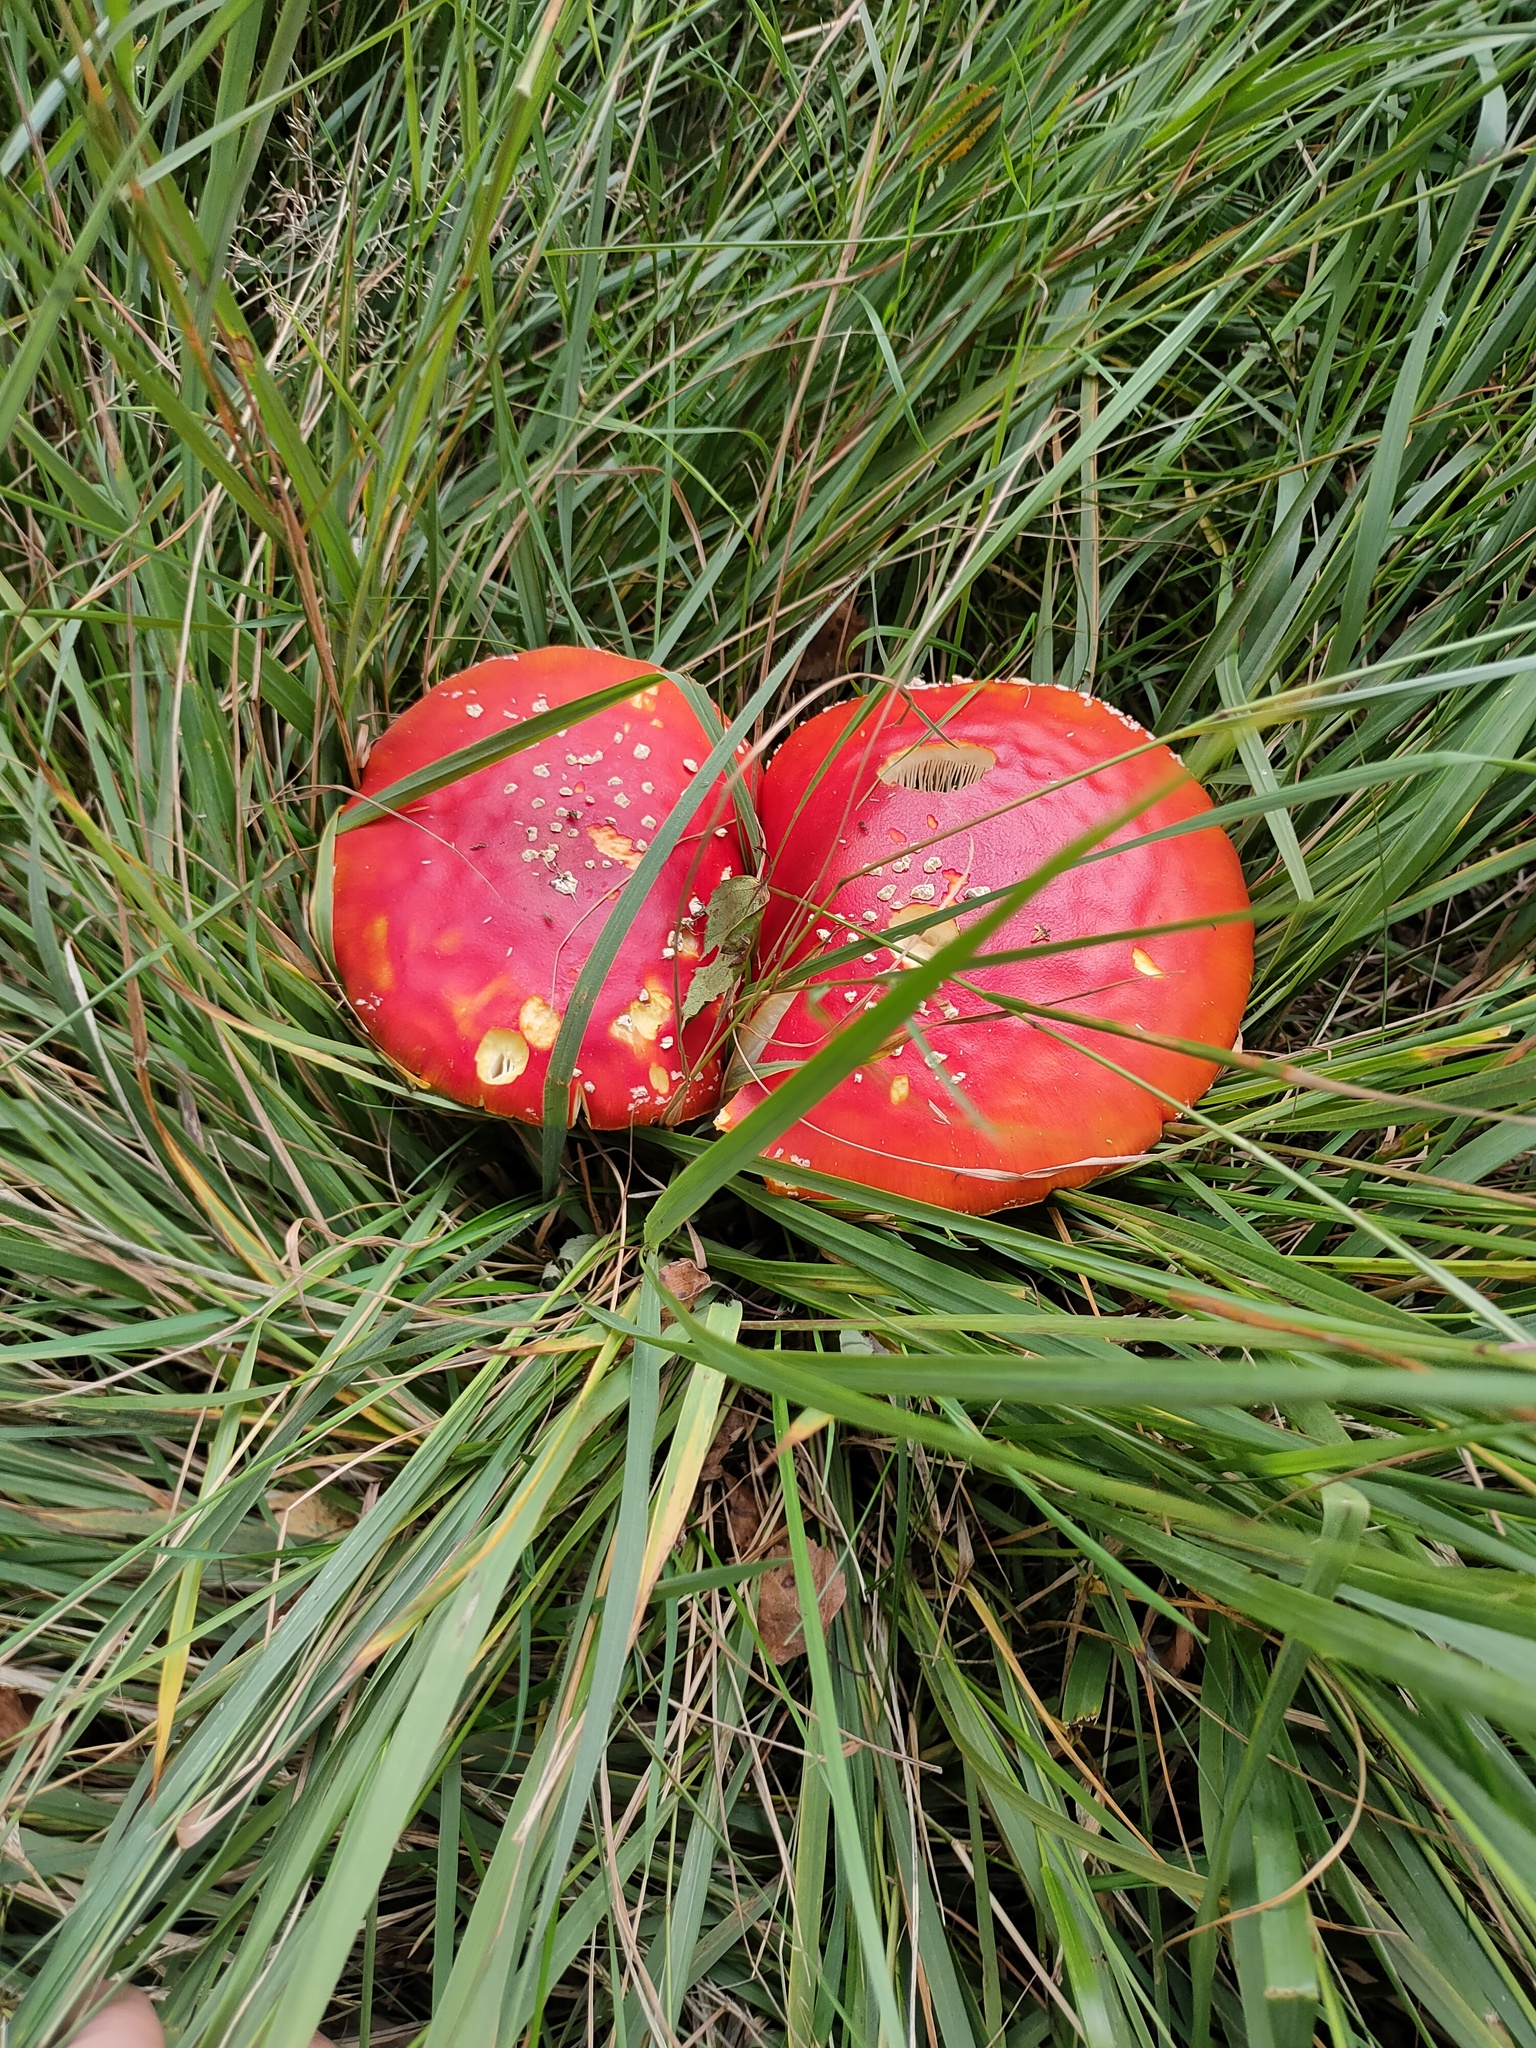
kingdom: Fungi
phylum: Basidiomycota
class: Agaricomycetes
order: Agaricales
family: Amanitaceae
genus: Amanita
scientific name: Amanita muscaria
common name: Fly agaric
